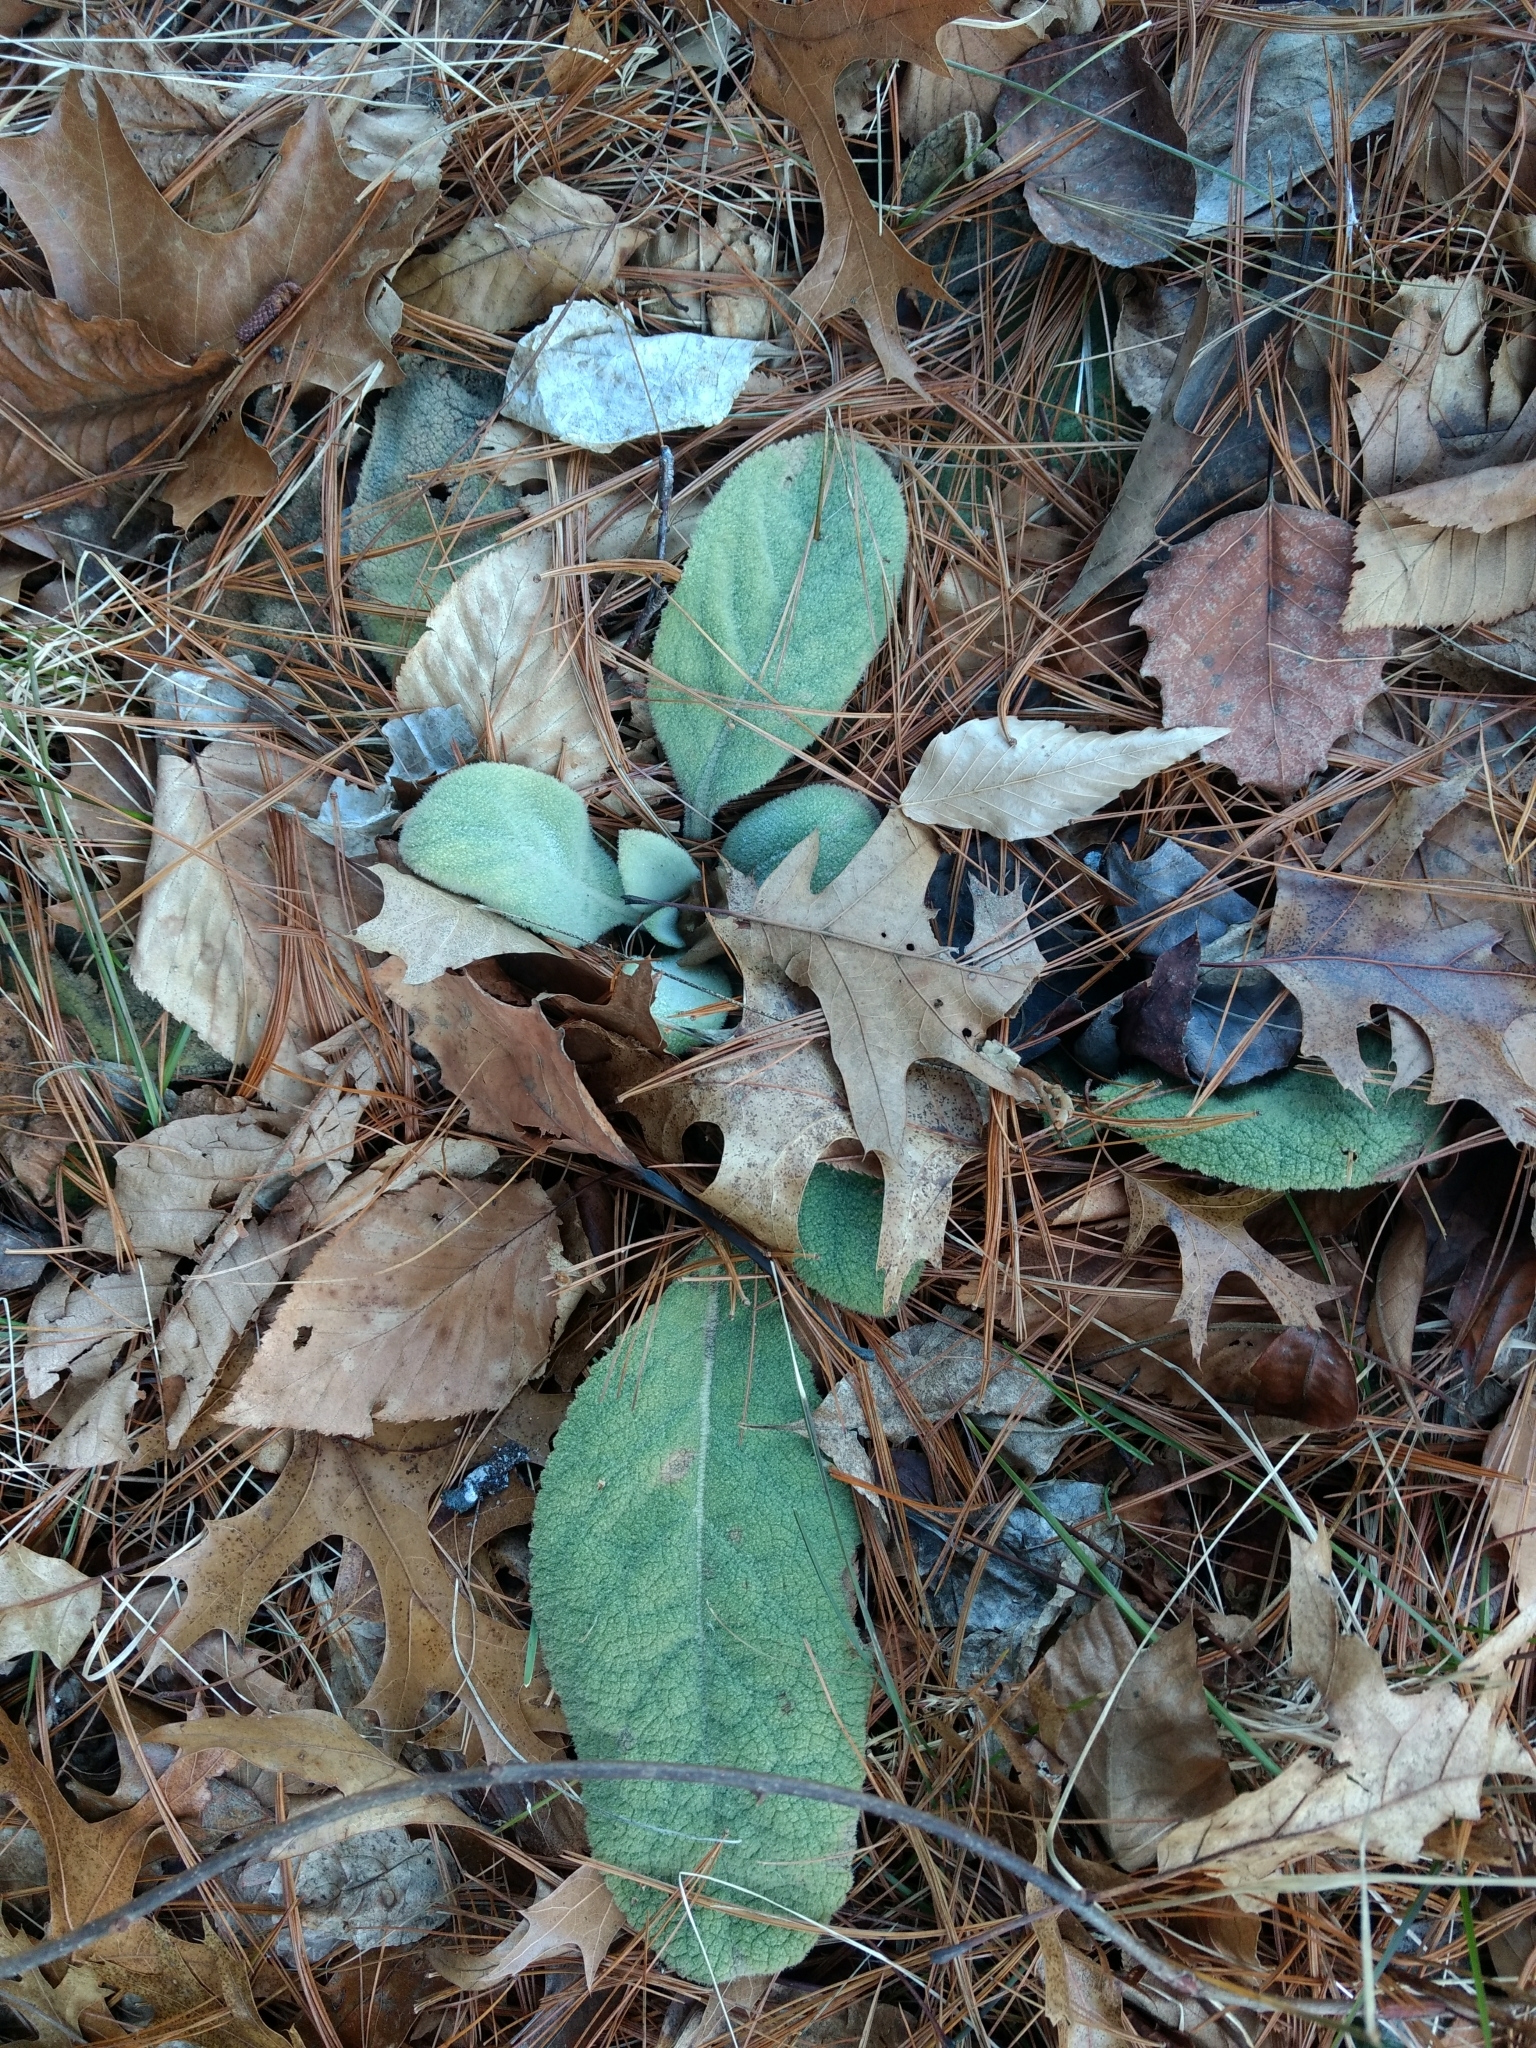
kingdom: Plantae
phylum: Tracheophyta
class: Magnoliopsida
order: Lamiales
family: Scrophulariaceae
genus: Verbascum
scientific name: Verbascum thapsus
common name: Common mullein
